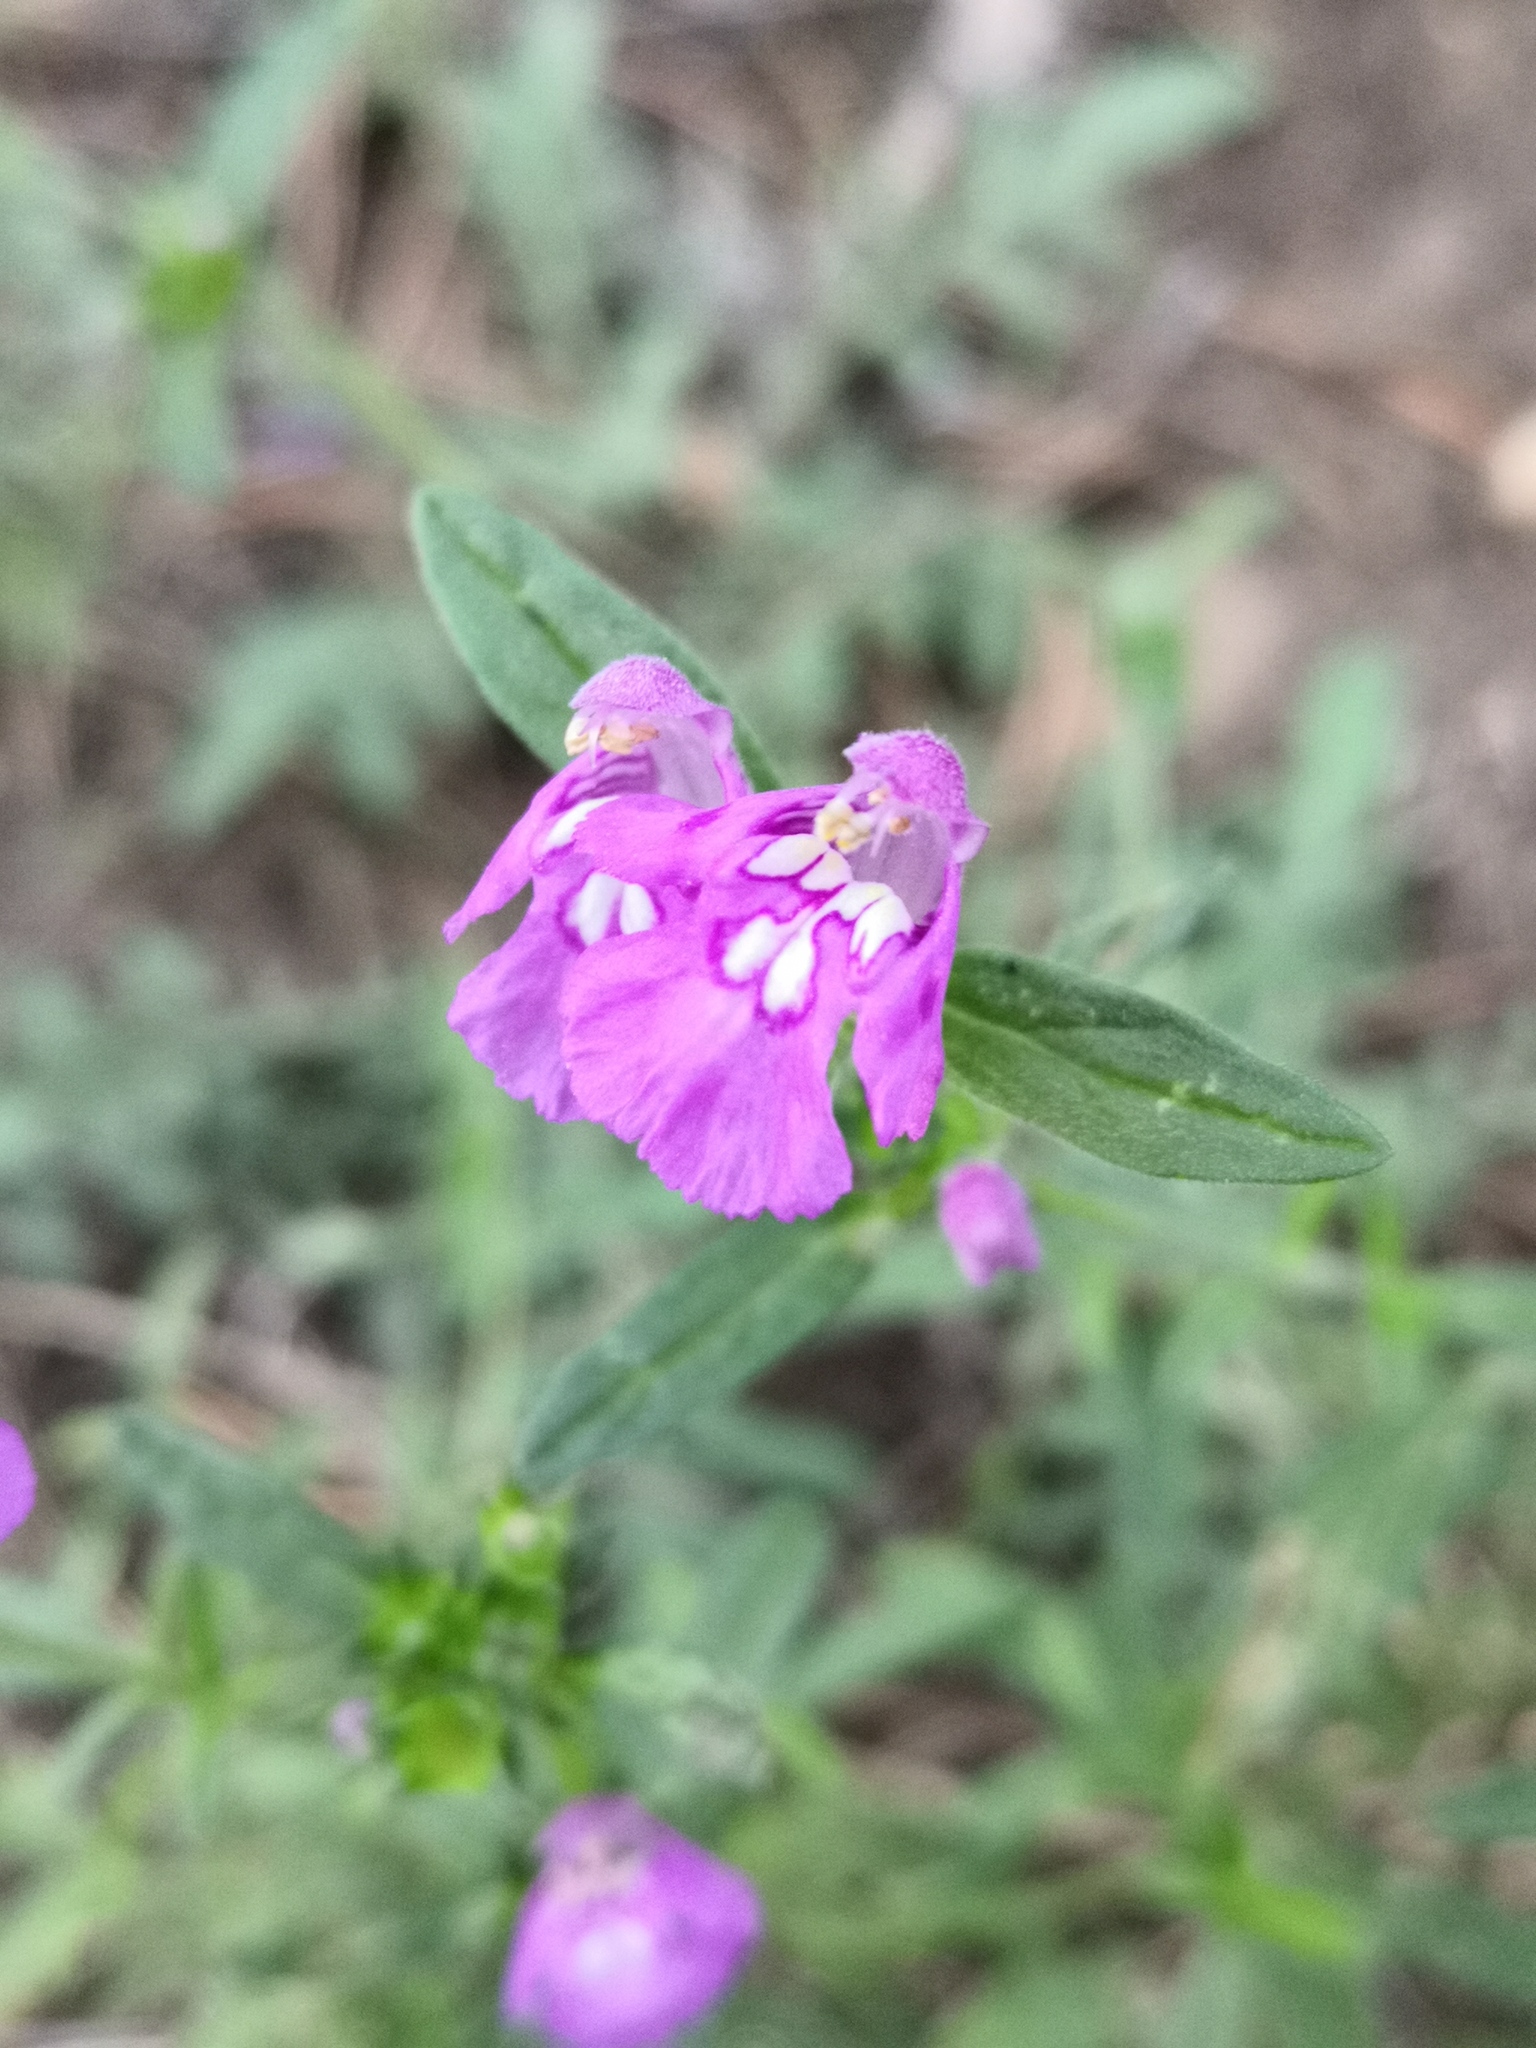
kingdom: Plantae
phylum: Tracheophyta
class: Magnoliopsida
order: Lamiales
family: Lamiaceae
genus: Galeopsis
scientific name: Galeopsis angustifolia
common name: Red hemp-nettle
